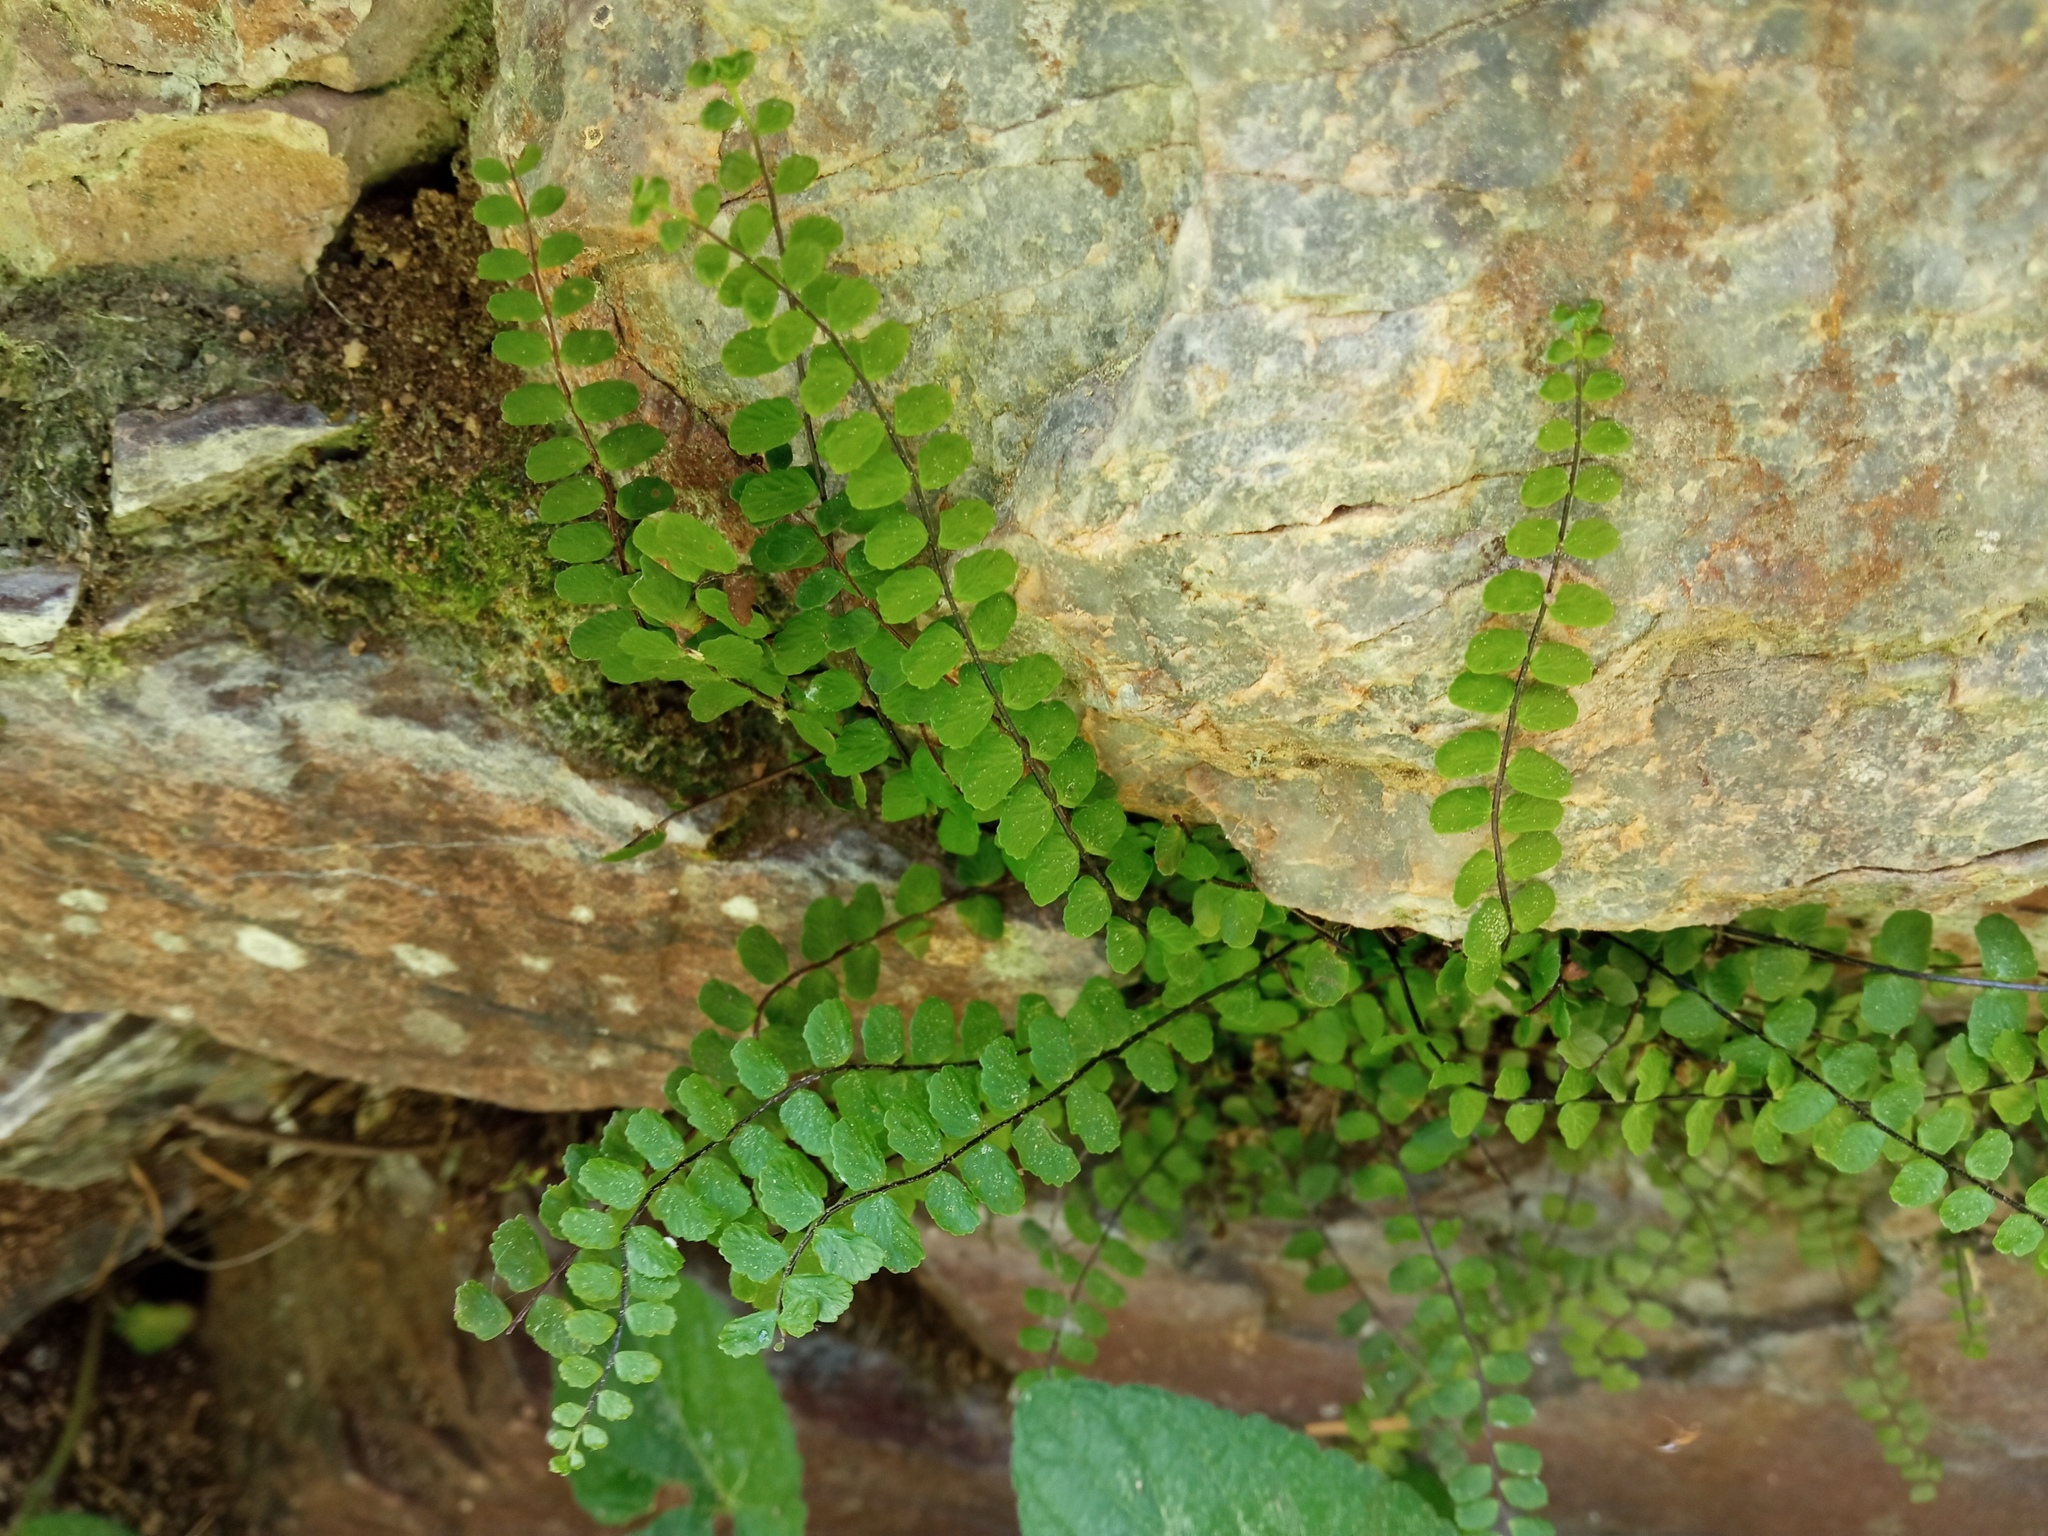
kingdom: Plantae
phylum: Tracheophyta
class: Polypodiopsida
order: Polypodiales
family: Aspleniaceae
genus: Asplenium
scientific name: Asplenium trichomanes
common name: Maidenhair spleenwort
